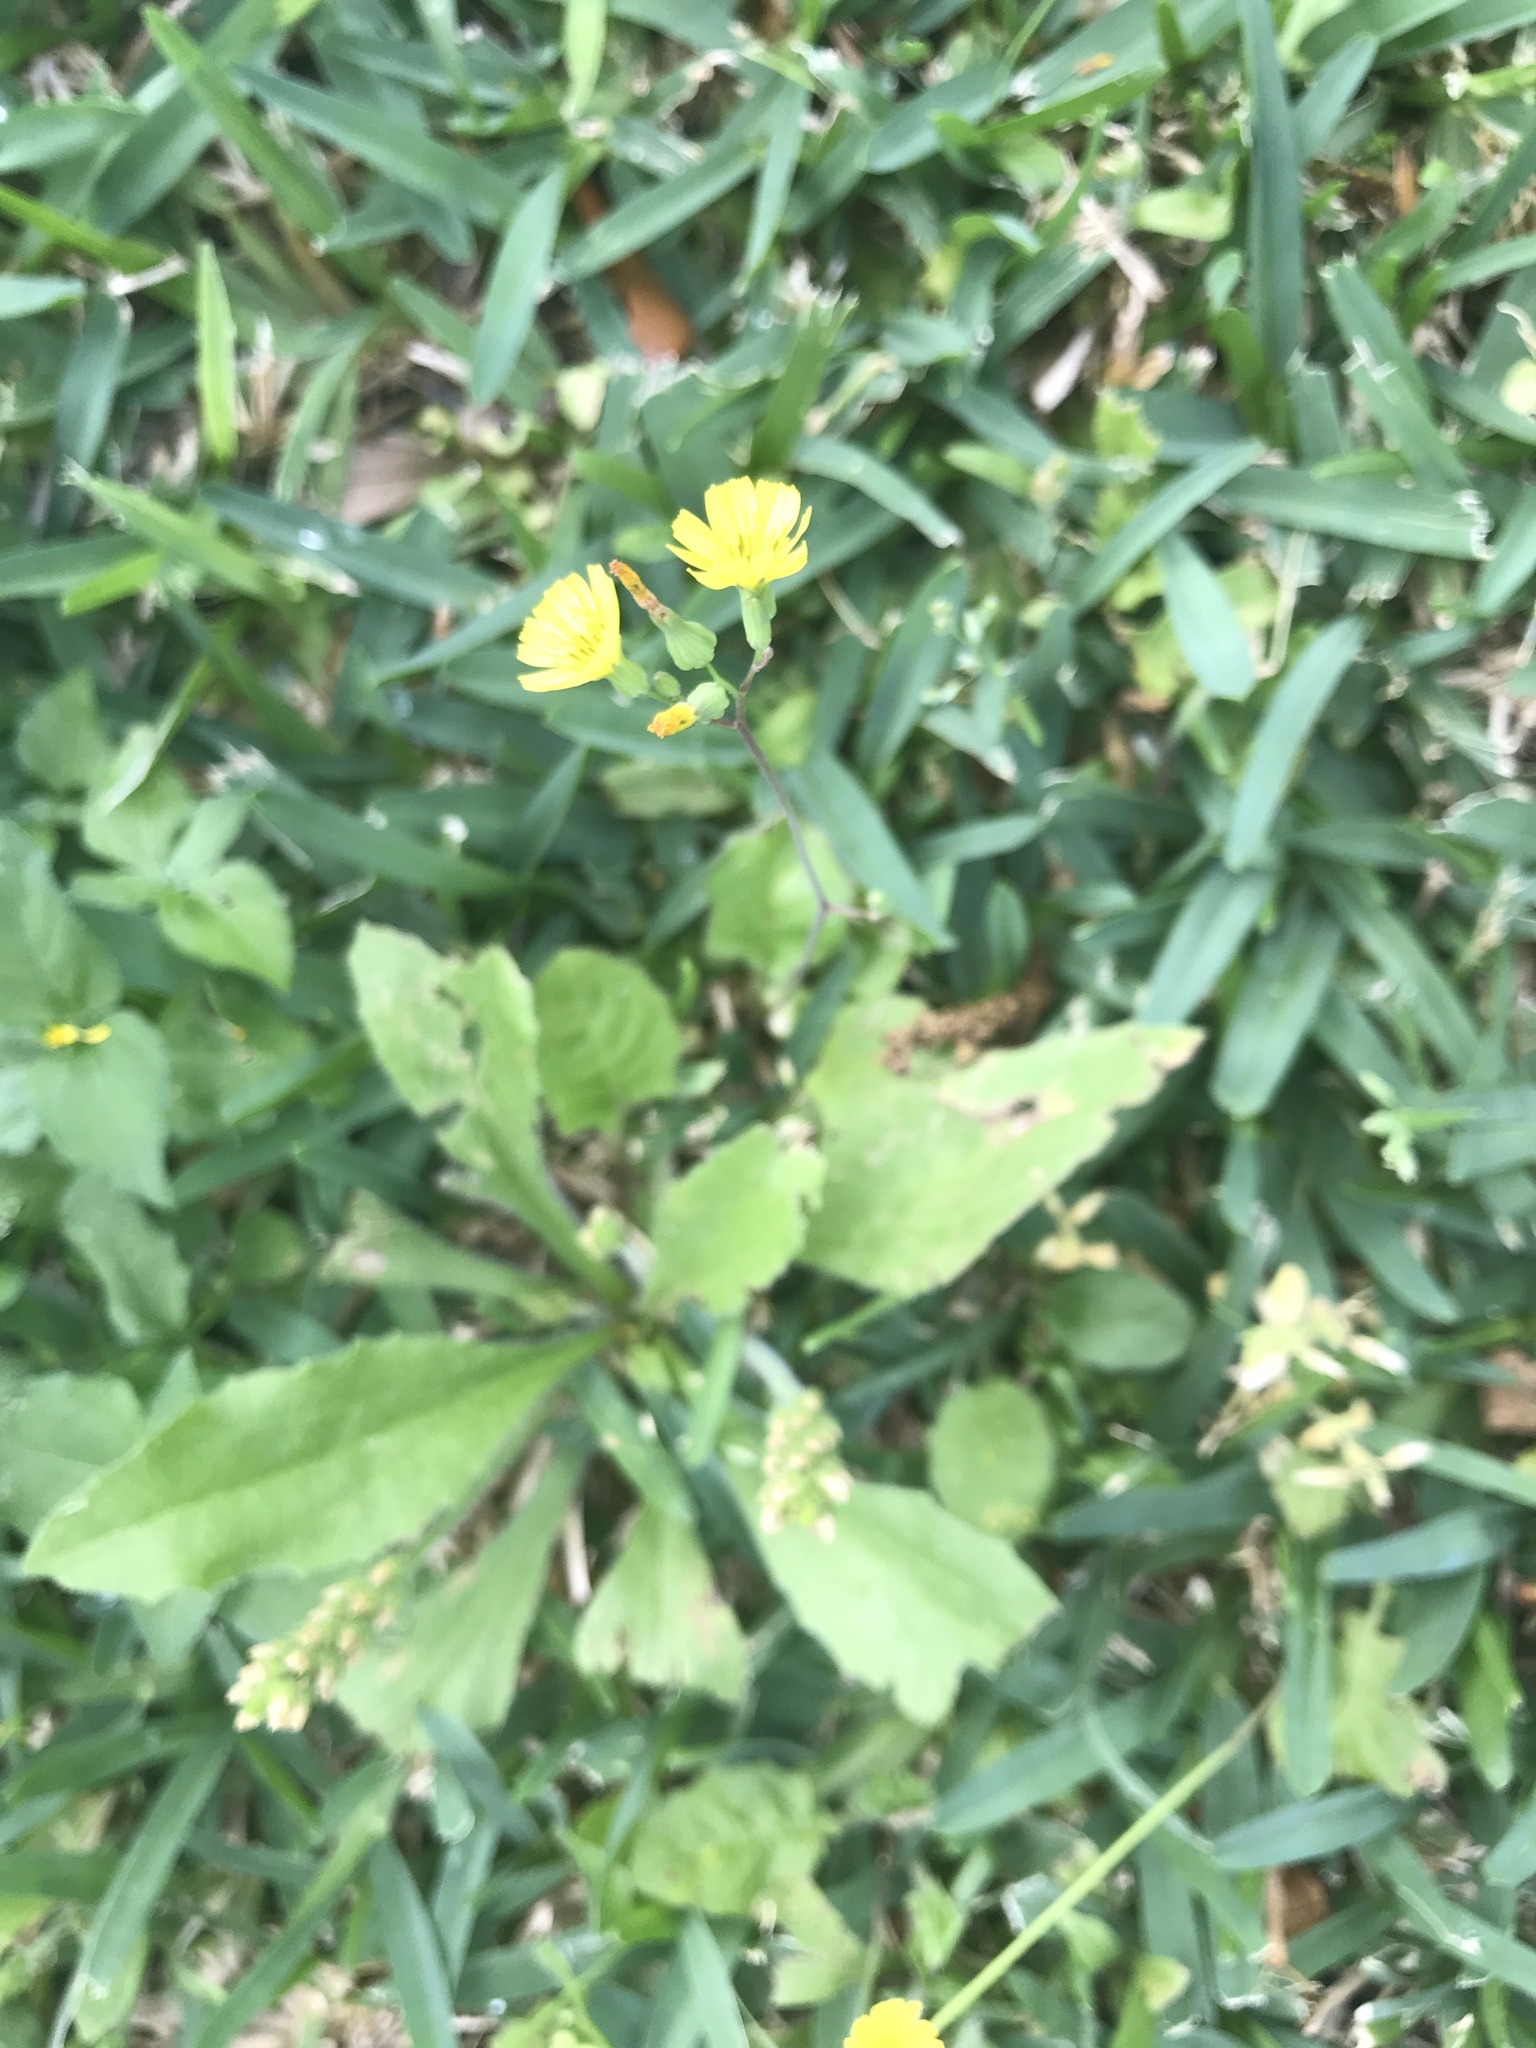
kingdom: Plantae
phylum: Tracheophyta
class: Magnoliopsida
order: Asterales
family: Asteraceae
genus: Youngia
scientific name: Youngia japonica
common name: Oriental false hawksbeard
